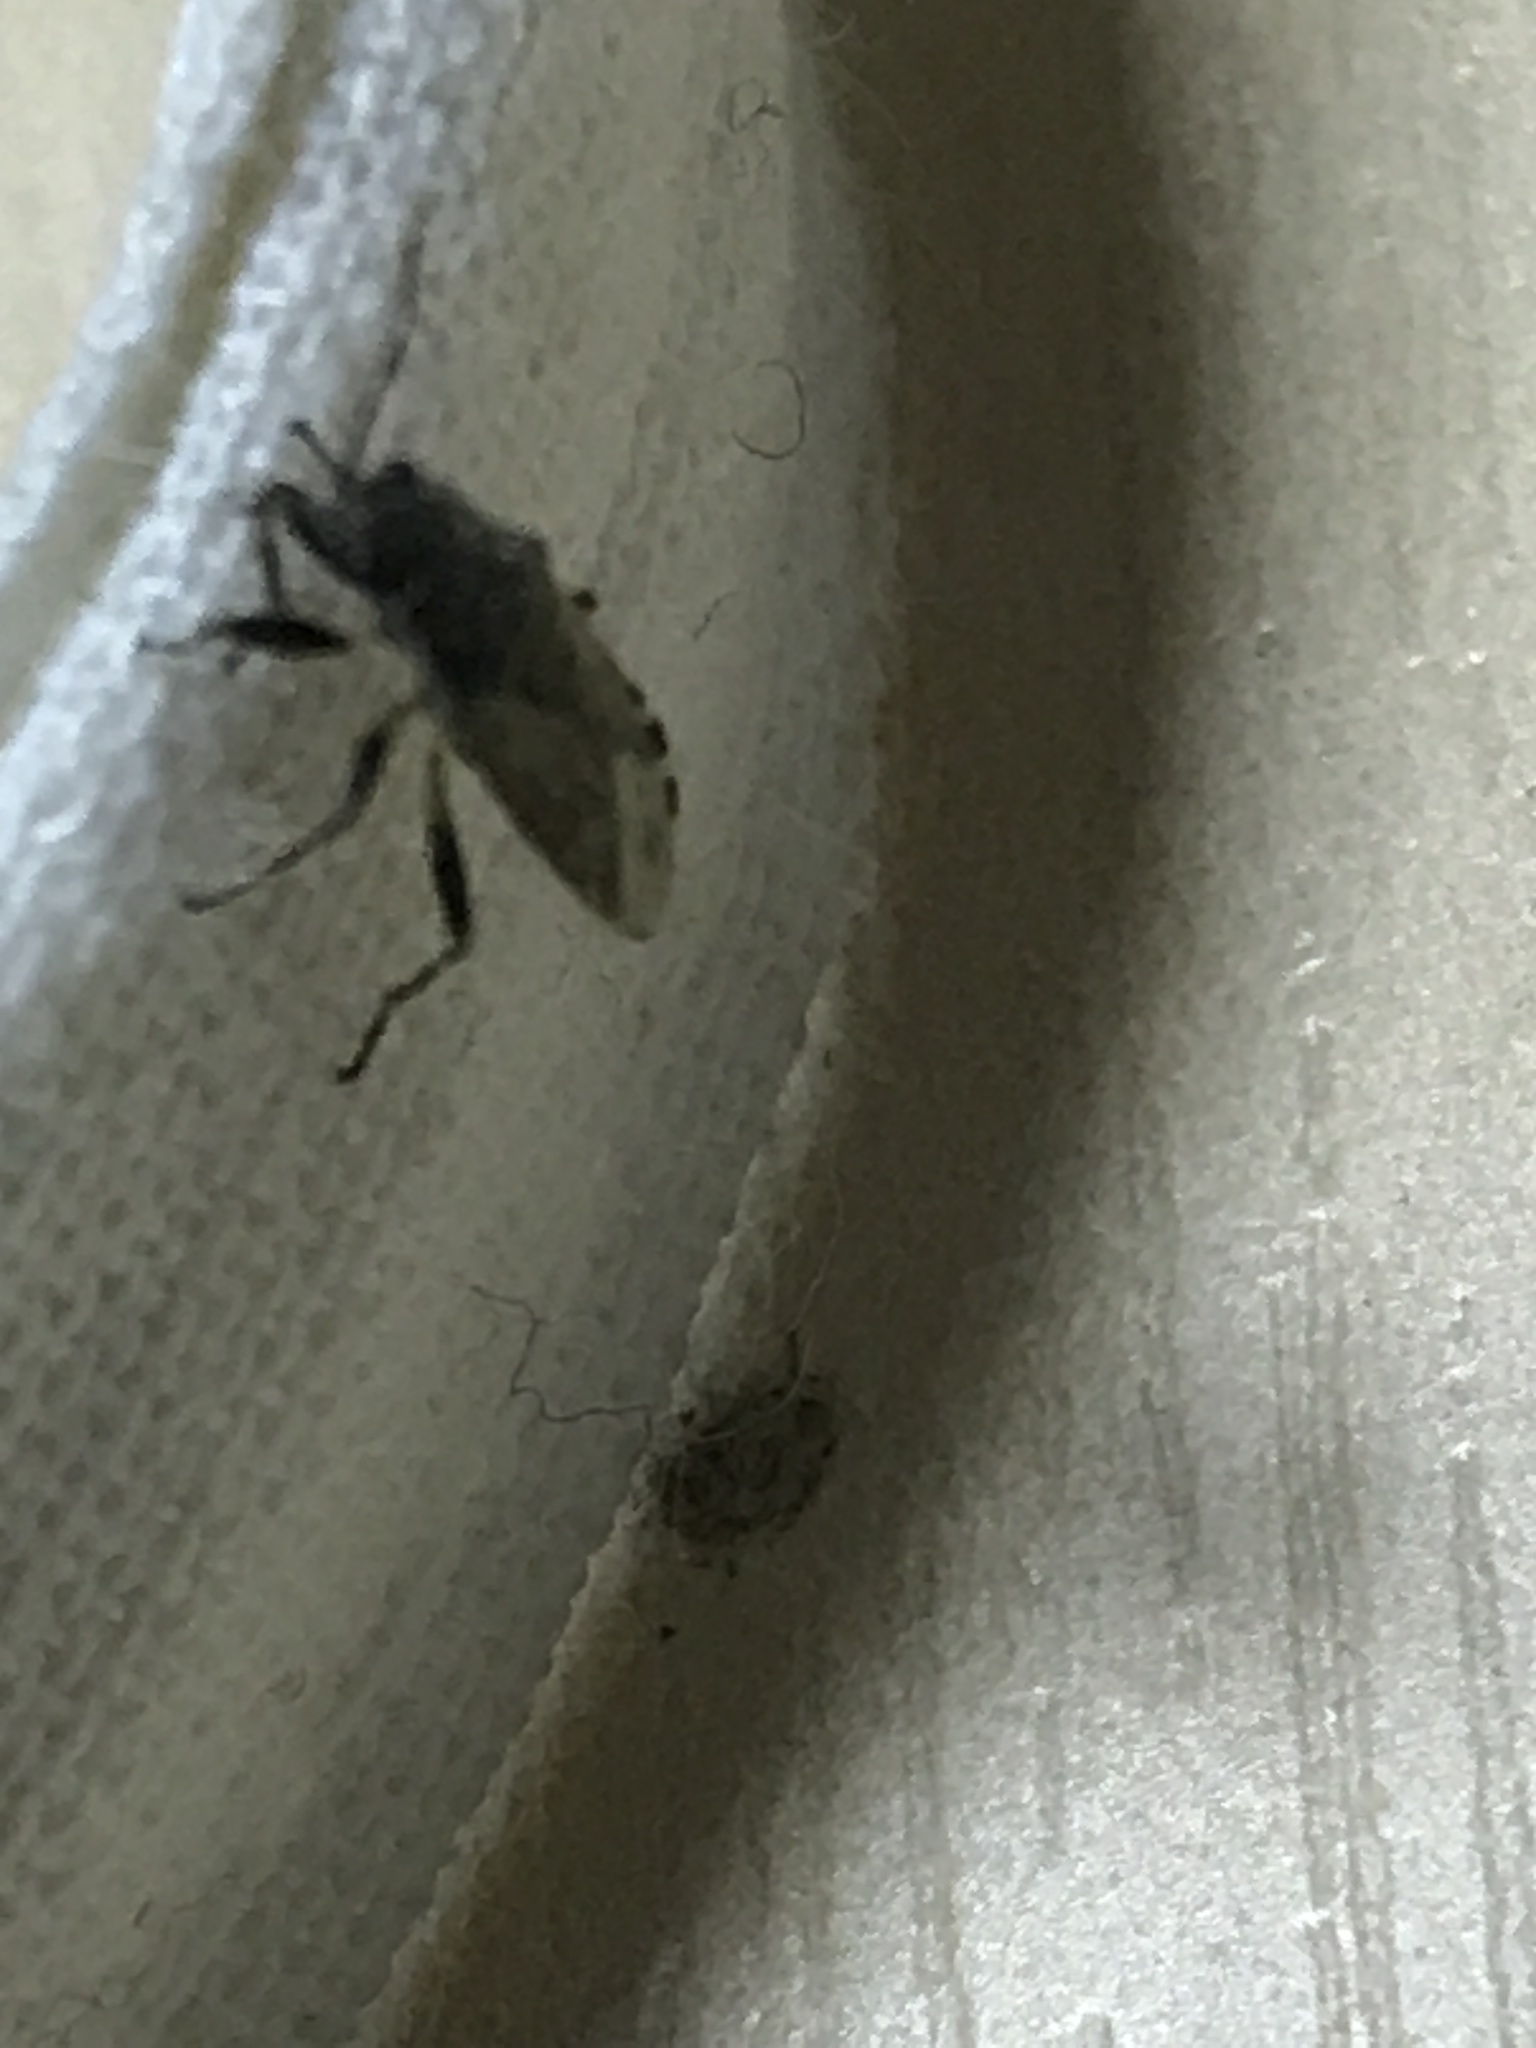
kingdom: Animalia
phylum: Arthropoda
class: Insecta
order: Hemiptera
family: Heterogastridae
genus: Heterogaster
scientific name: Heterogaster urticae
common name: Seed bug
